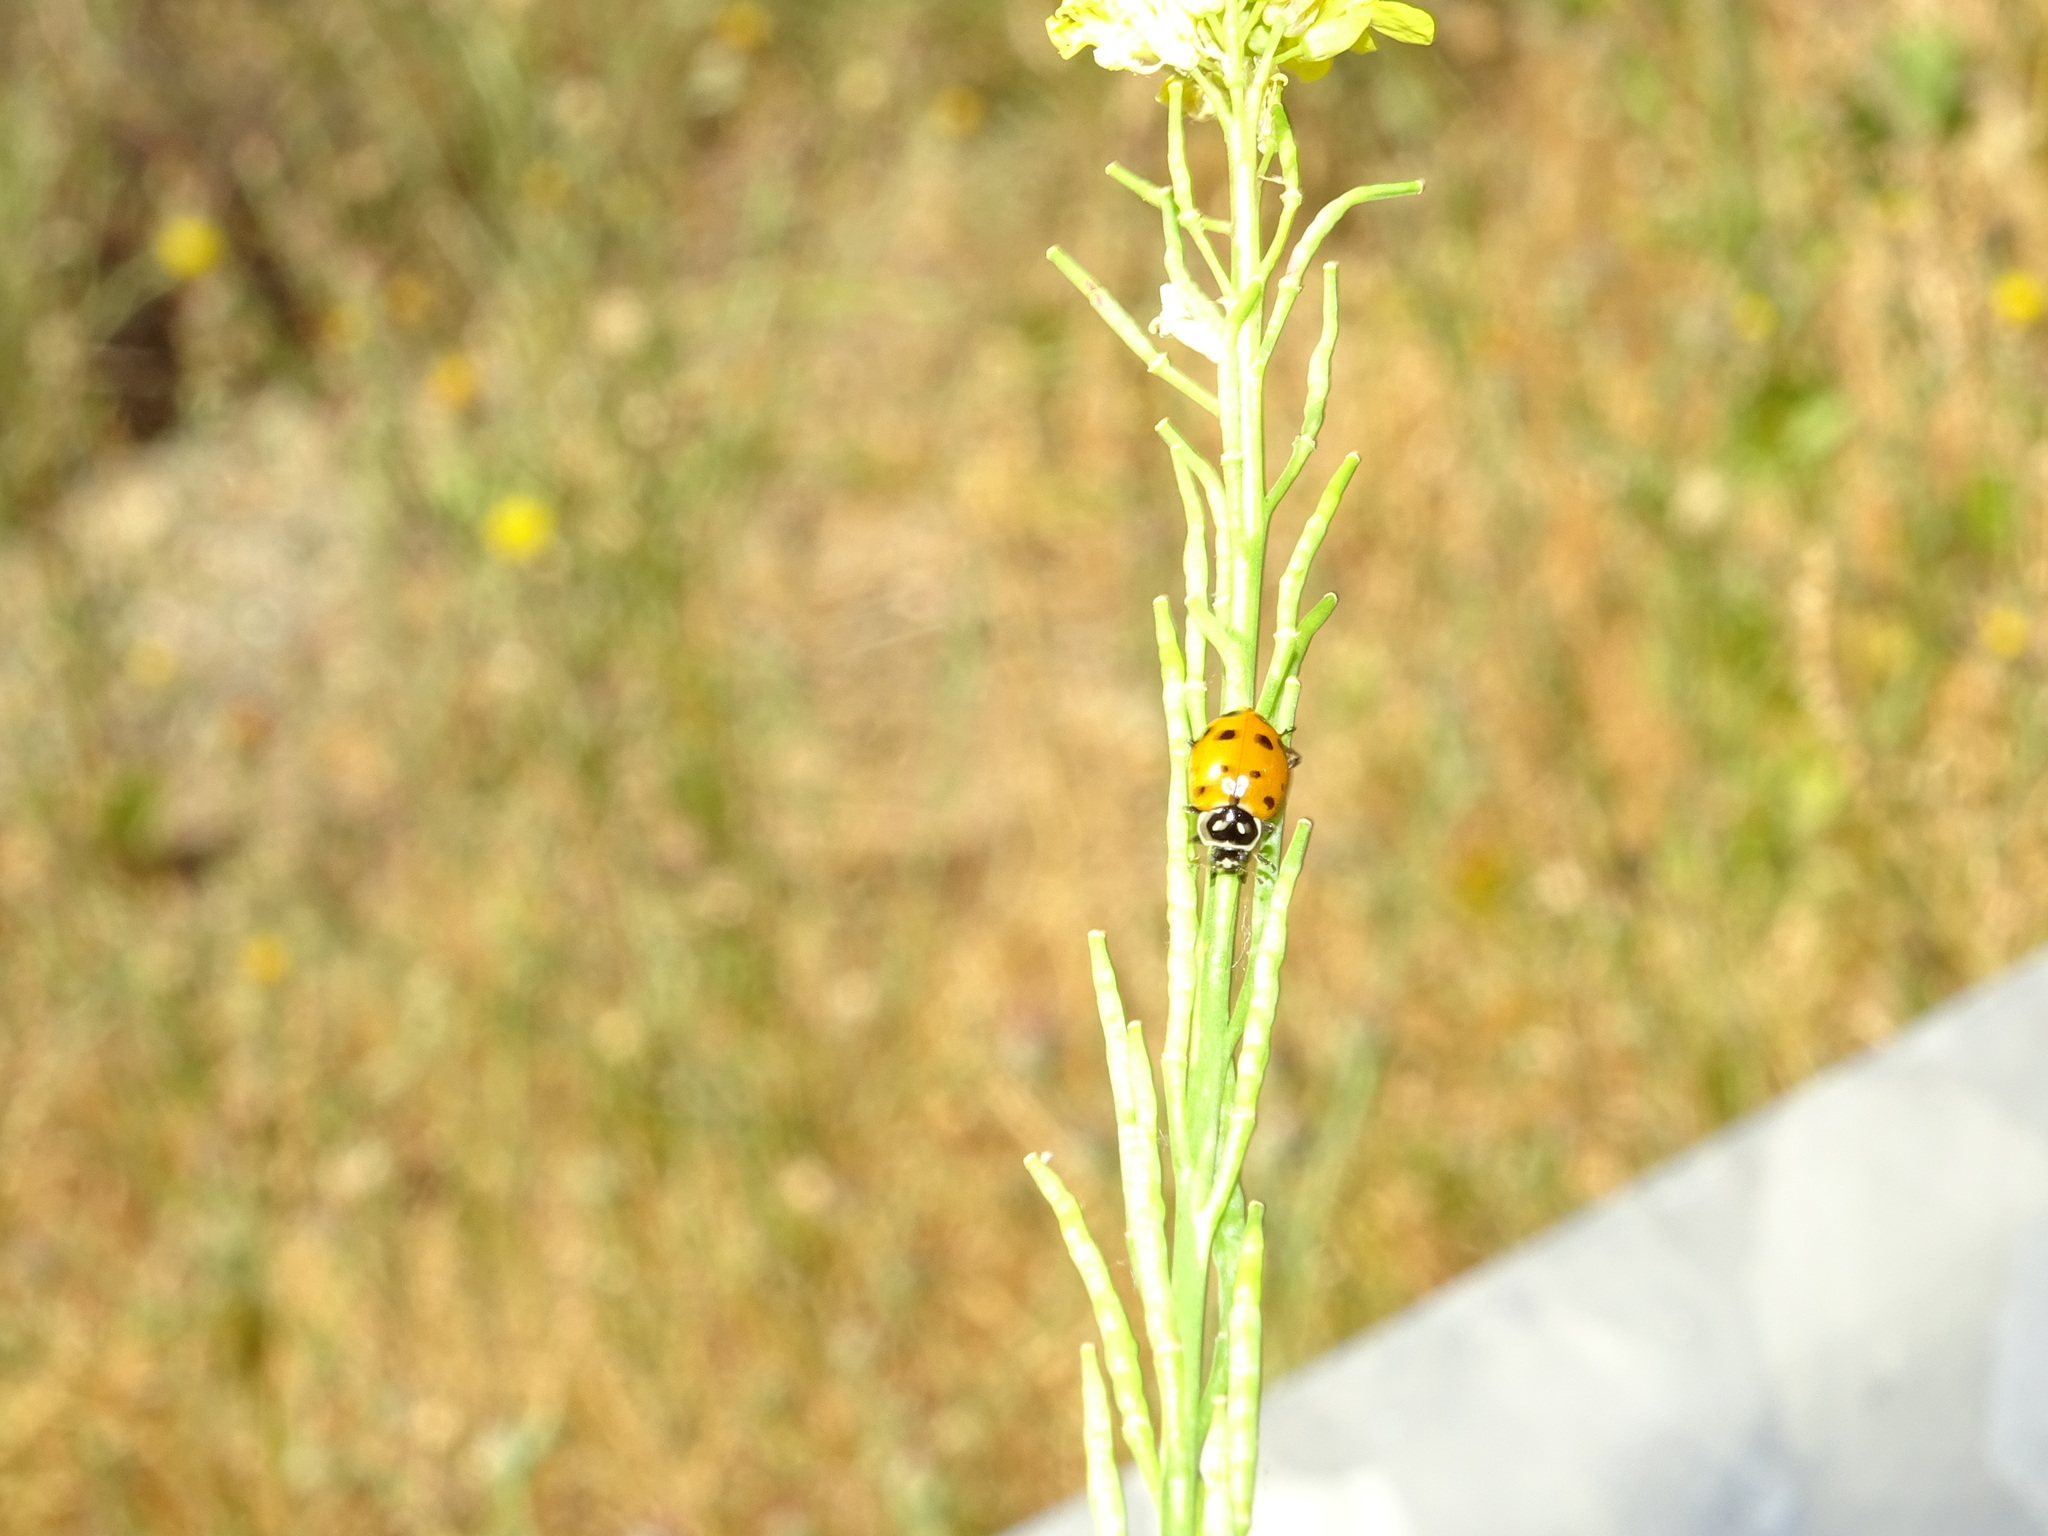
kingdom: Animalia
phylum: Arthropoda
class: Insecta
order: Coleoptera
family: Coccinellidae
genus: Hippodamia
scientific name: Hippodamia convergens
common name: Convergent lady beetle
